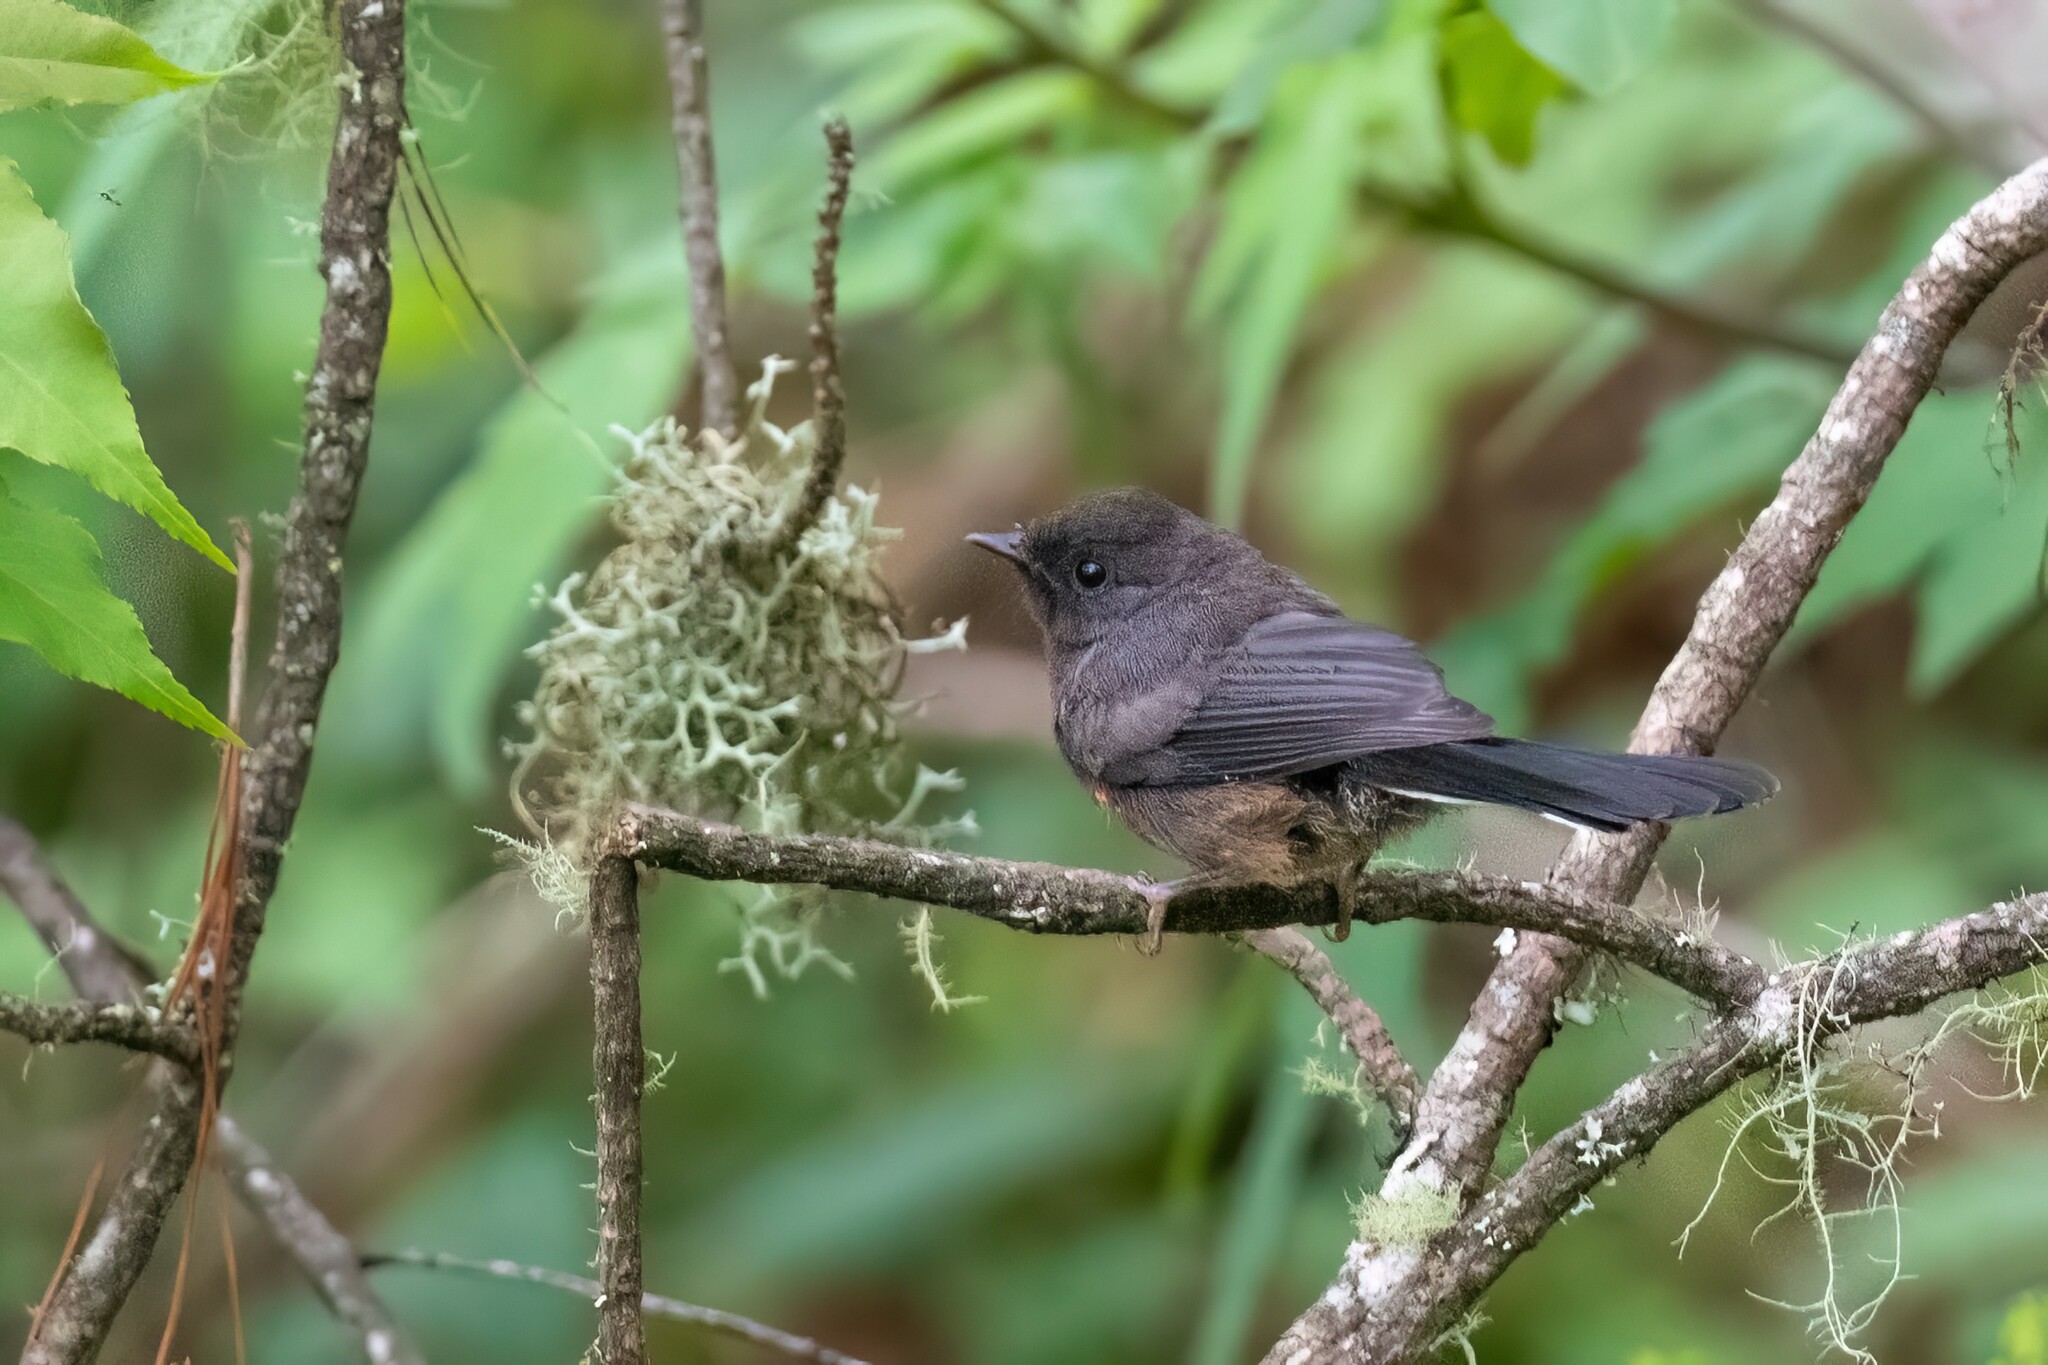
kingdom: Animalia
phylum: Chordata
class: Aves
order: Passeriformes
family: Parulidae
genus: Myioborus
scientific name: Myioborus pictus
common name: Painted whitestart
